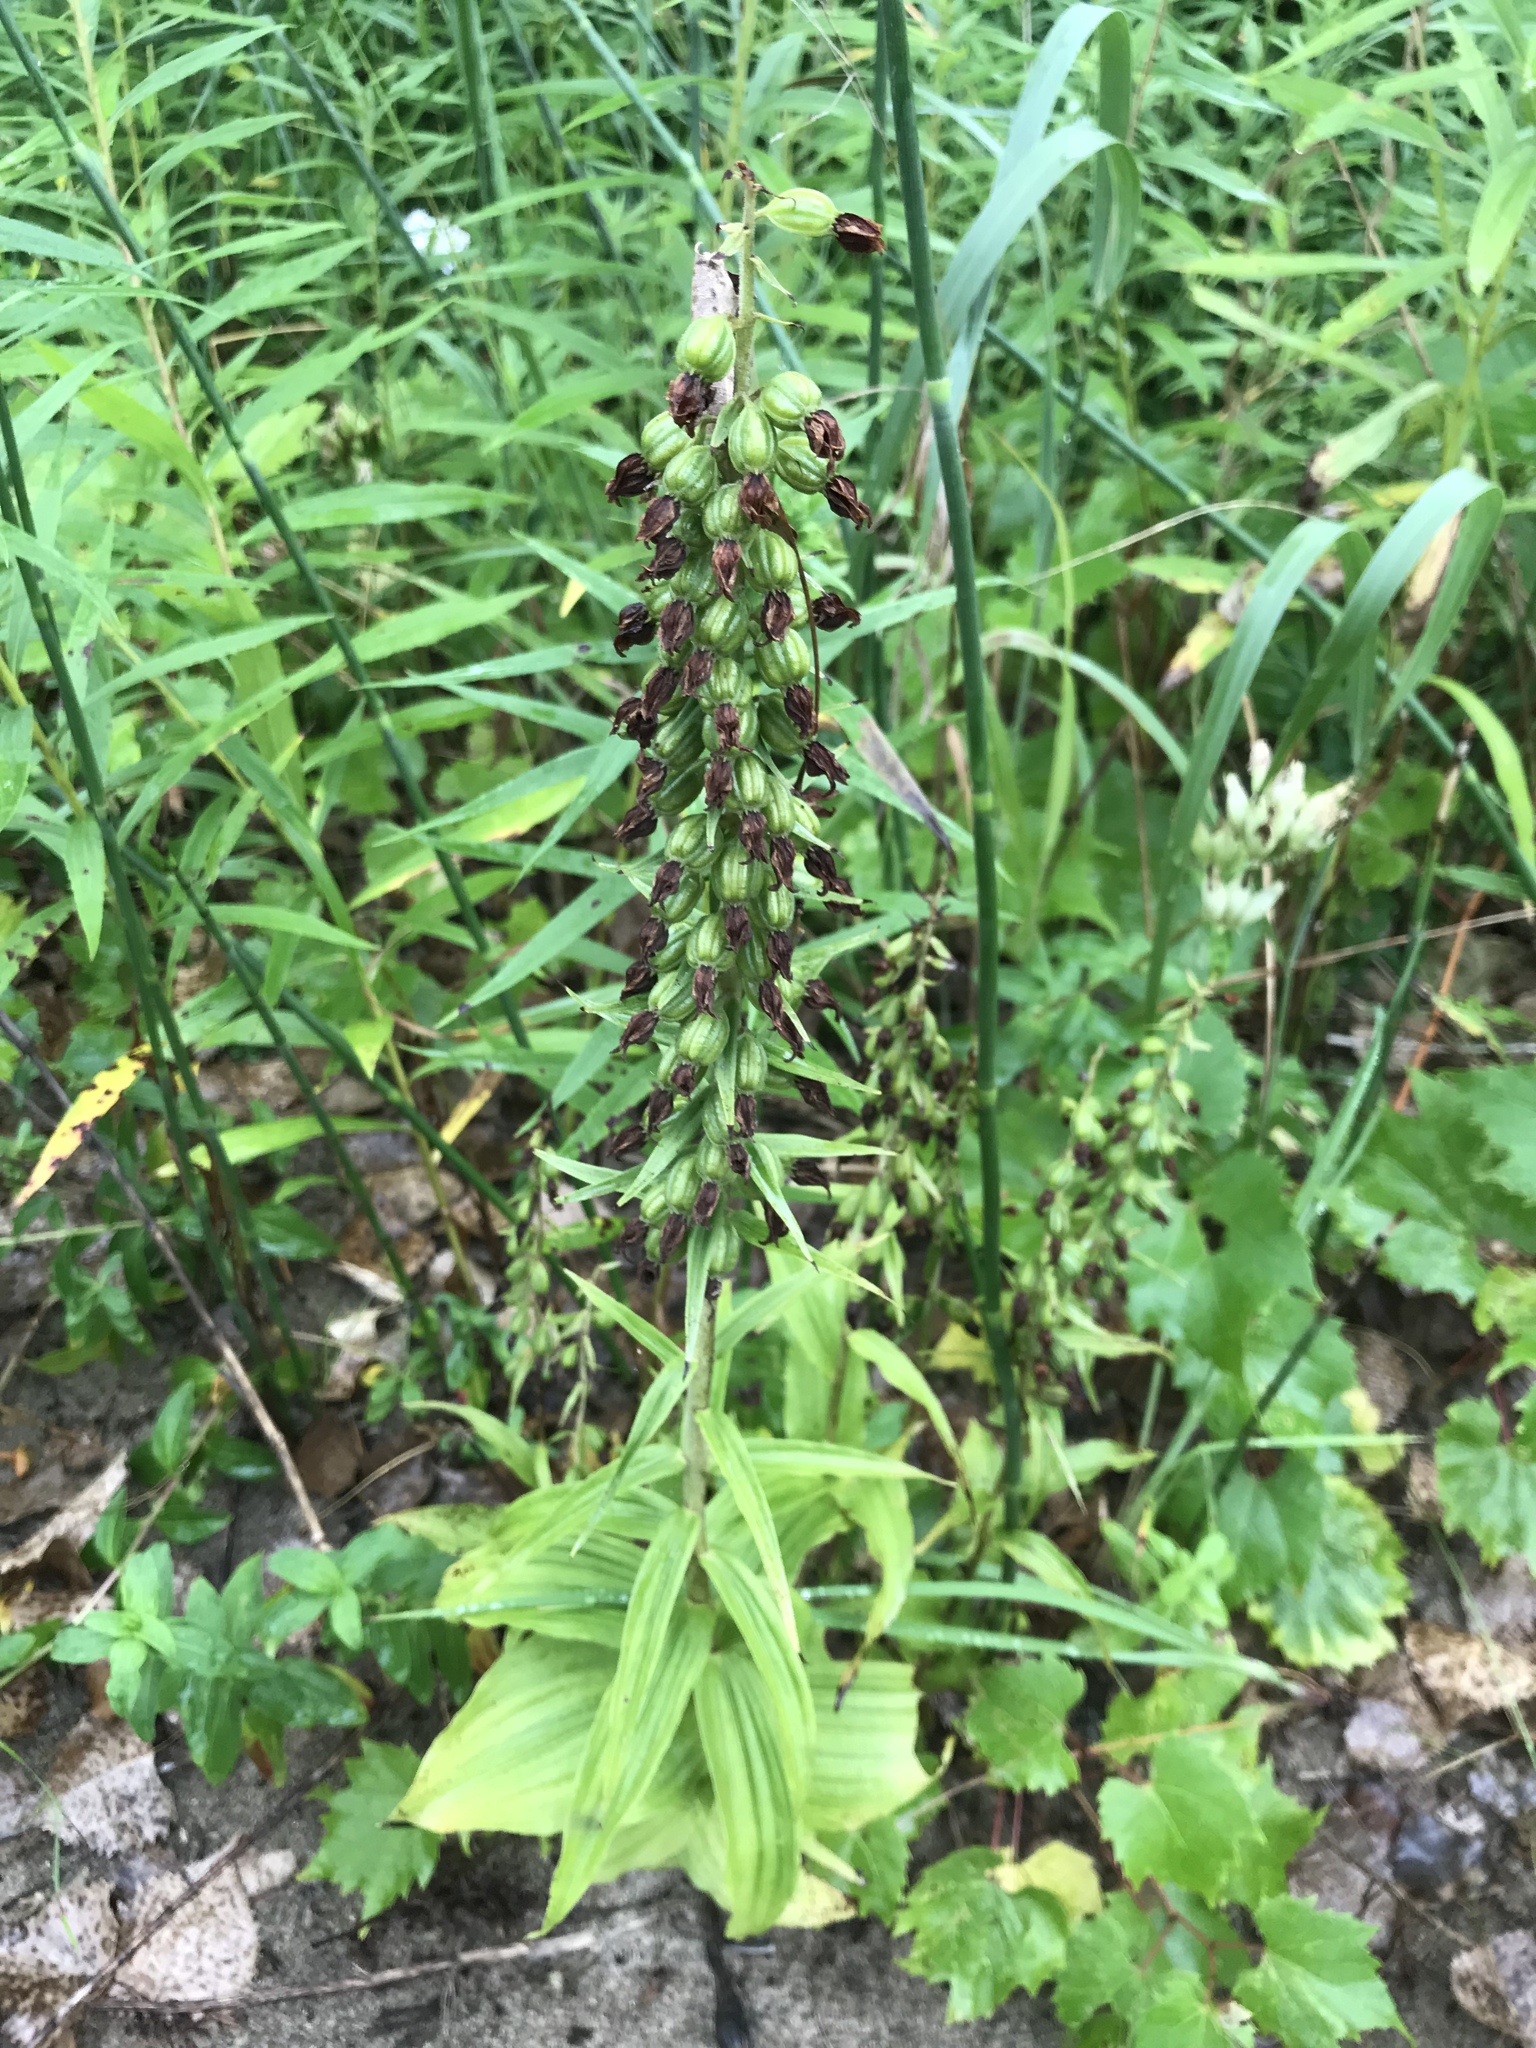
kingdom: Plantae
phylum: Tracheophyta
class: Liliopsida
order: Asparagales
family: Orchidaceae
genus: Epipactis
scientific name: Epipactis helleborine
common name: Broad-leaved helleborine
